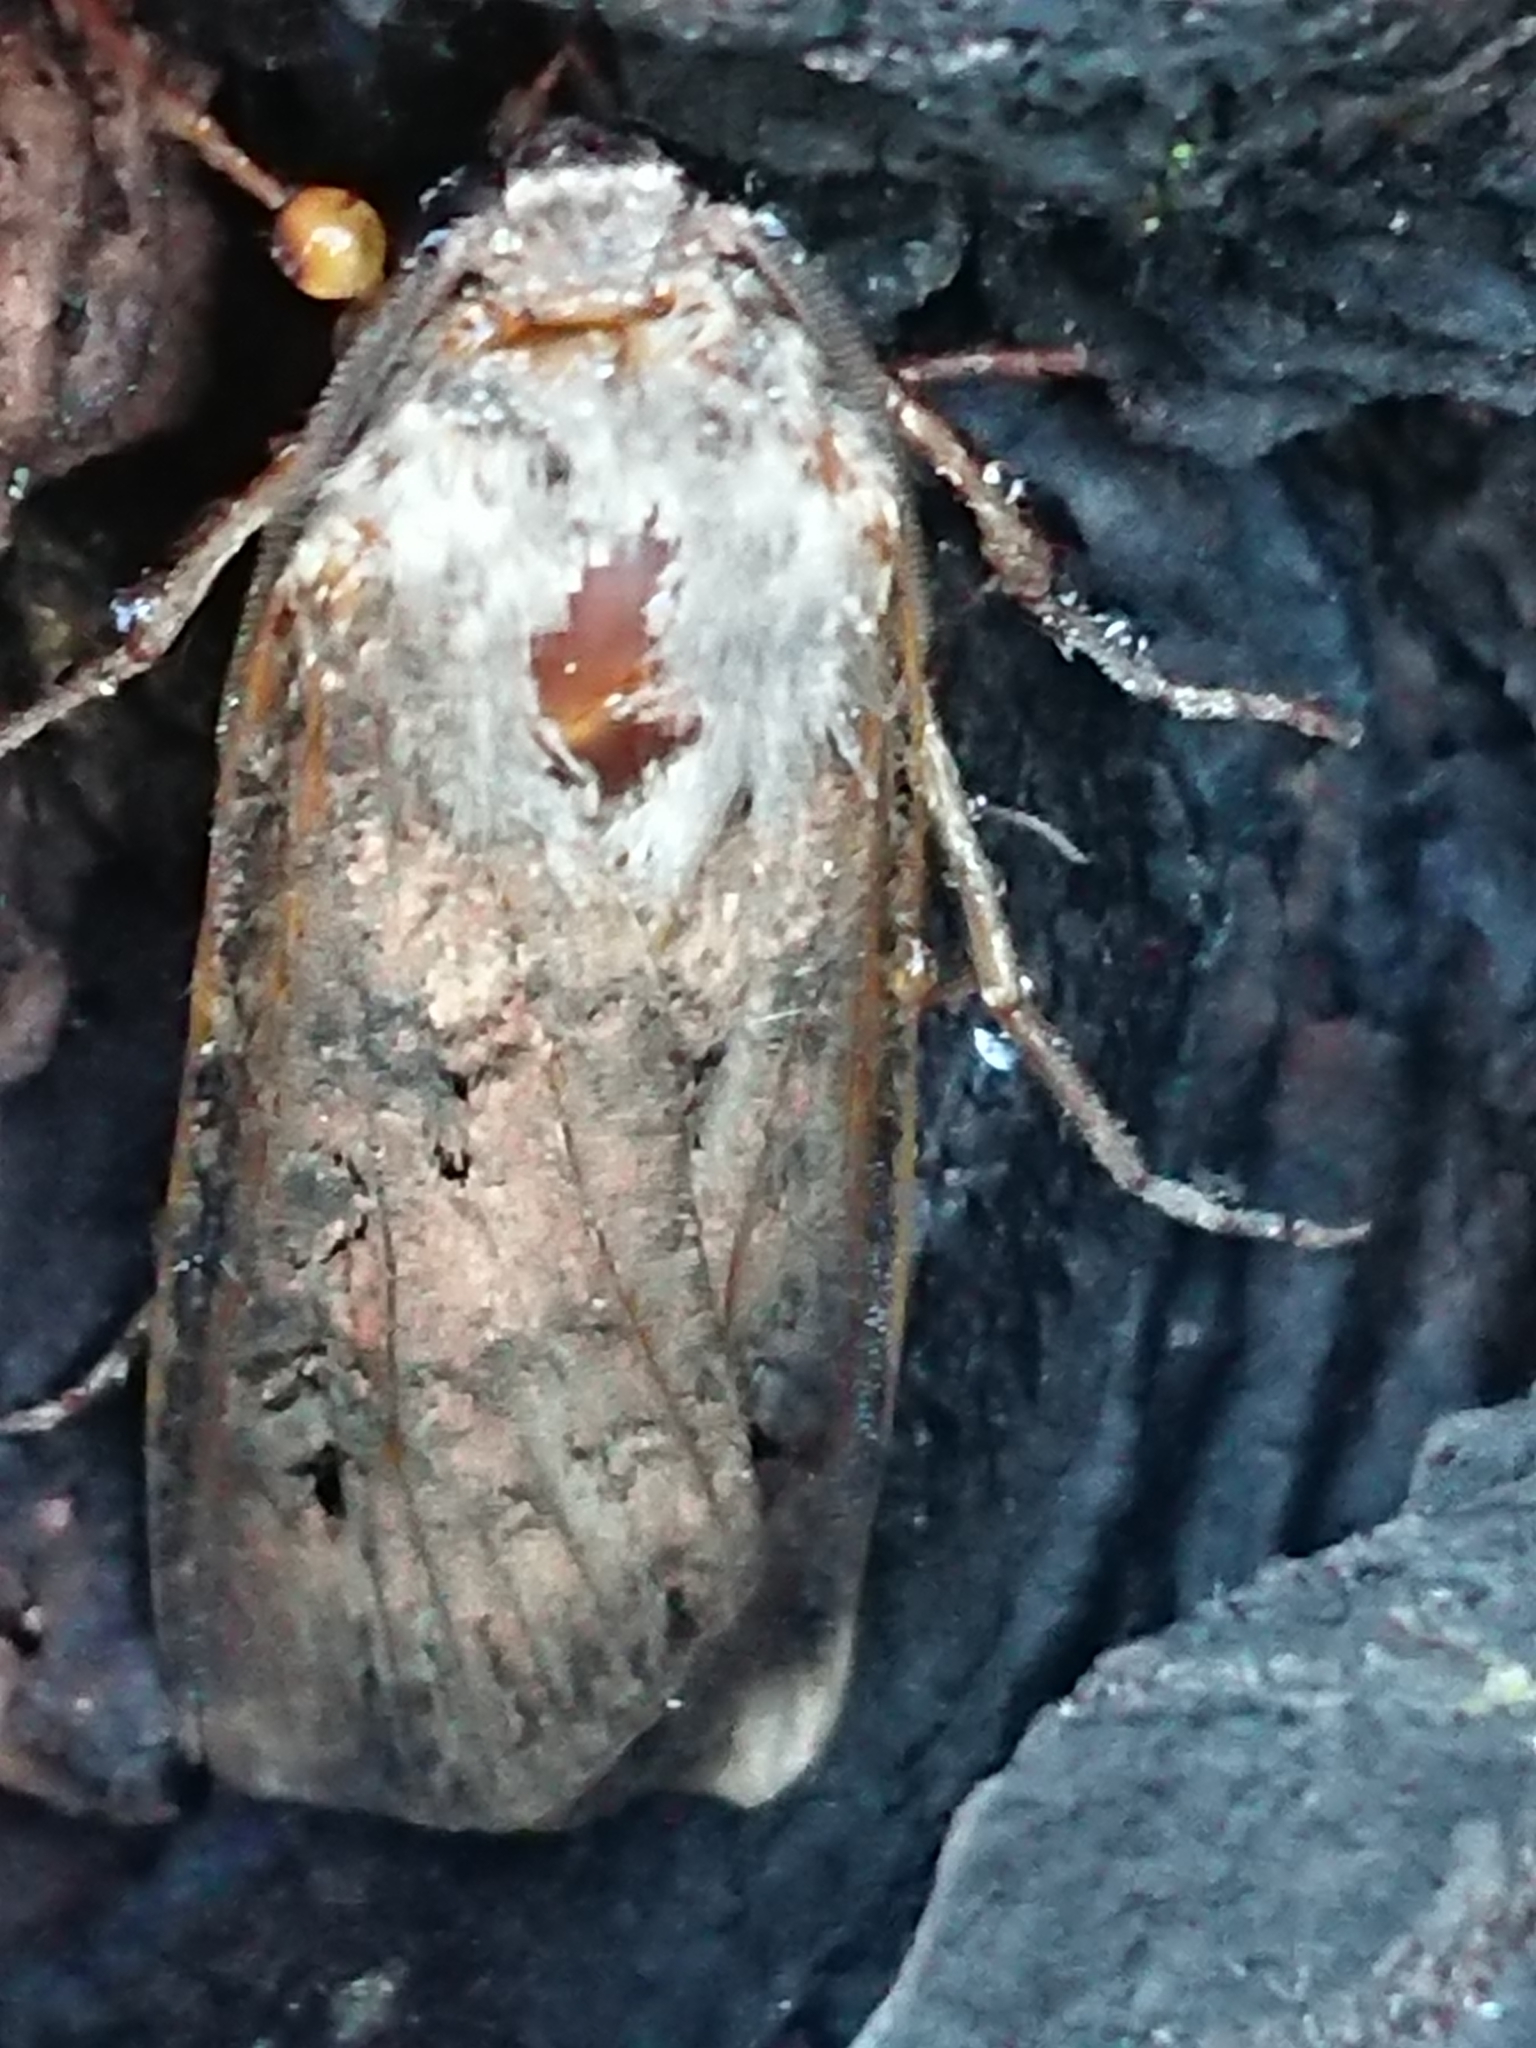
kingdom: Animalia
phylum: Arthropoda
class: Insecta
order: Lepidoptera
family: Noctuidae
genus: Agrotis
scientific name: Agrotis ipsilon
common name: Dark sword-grass
